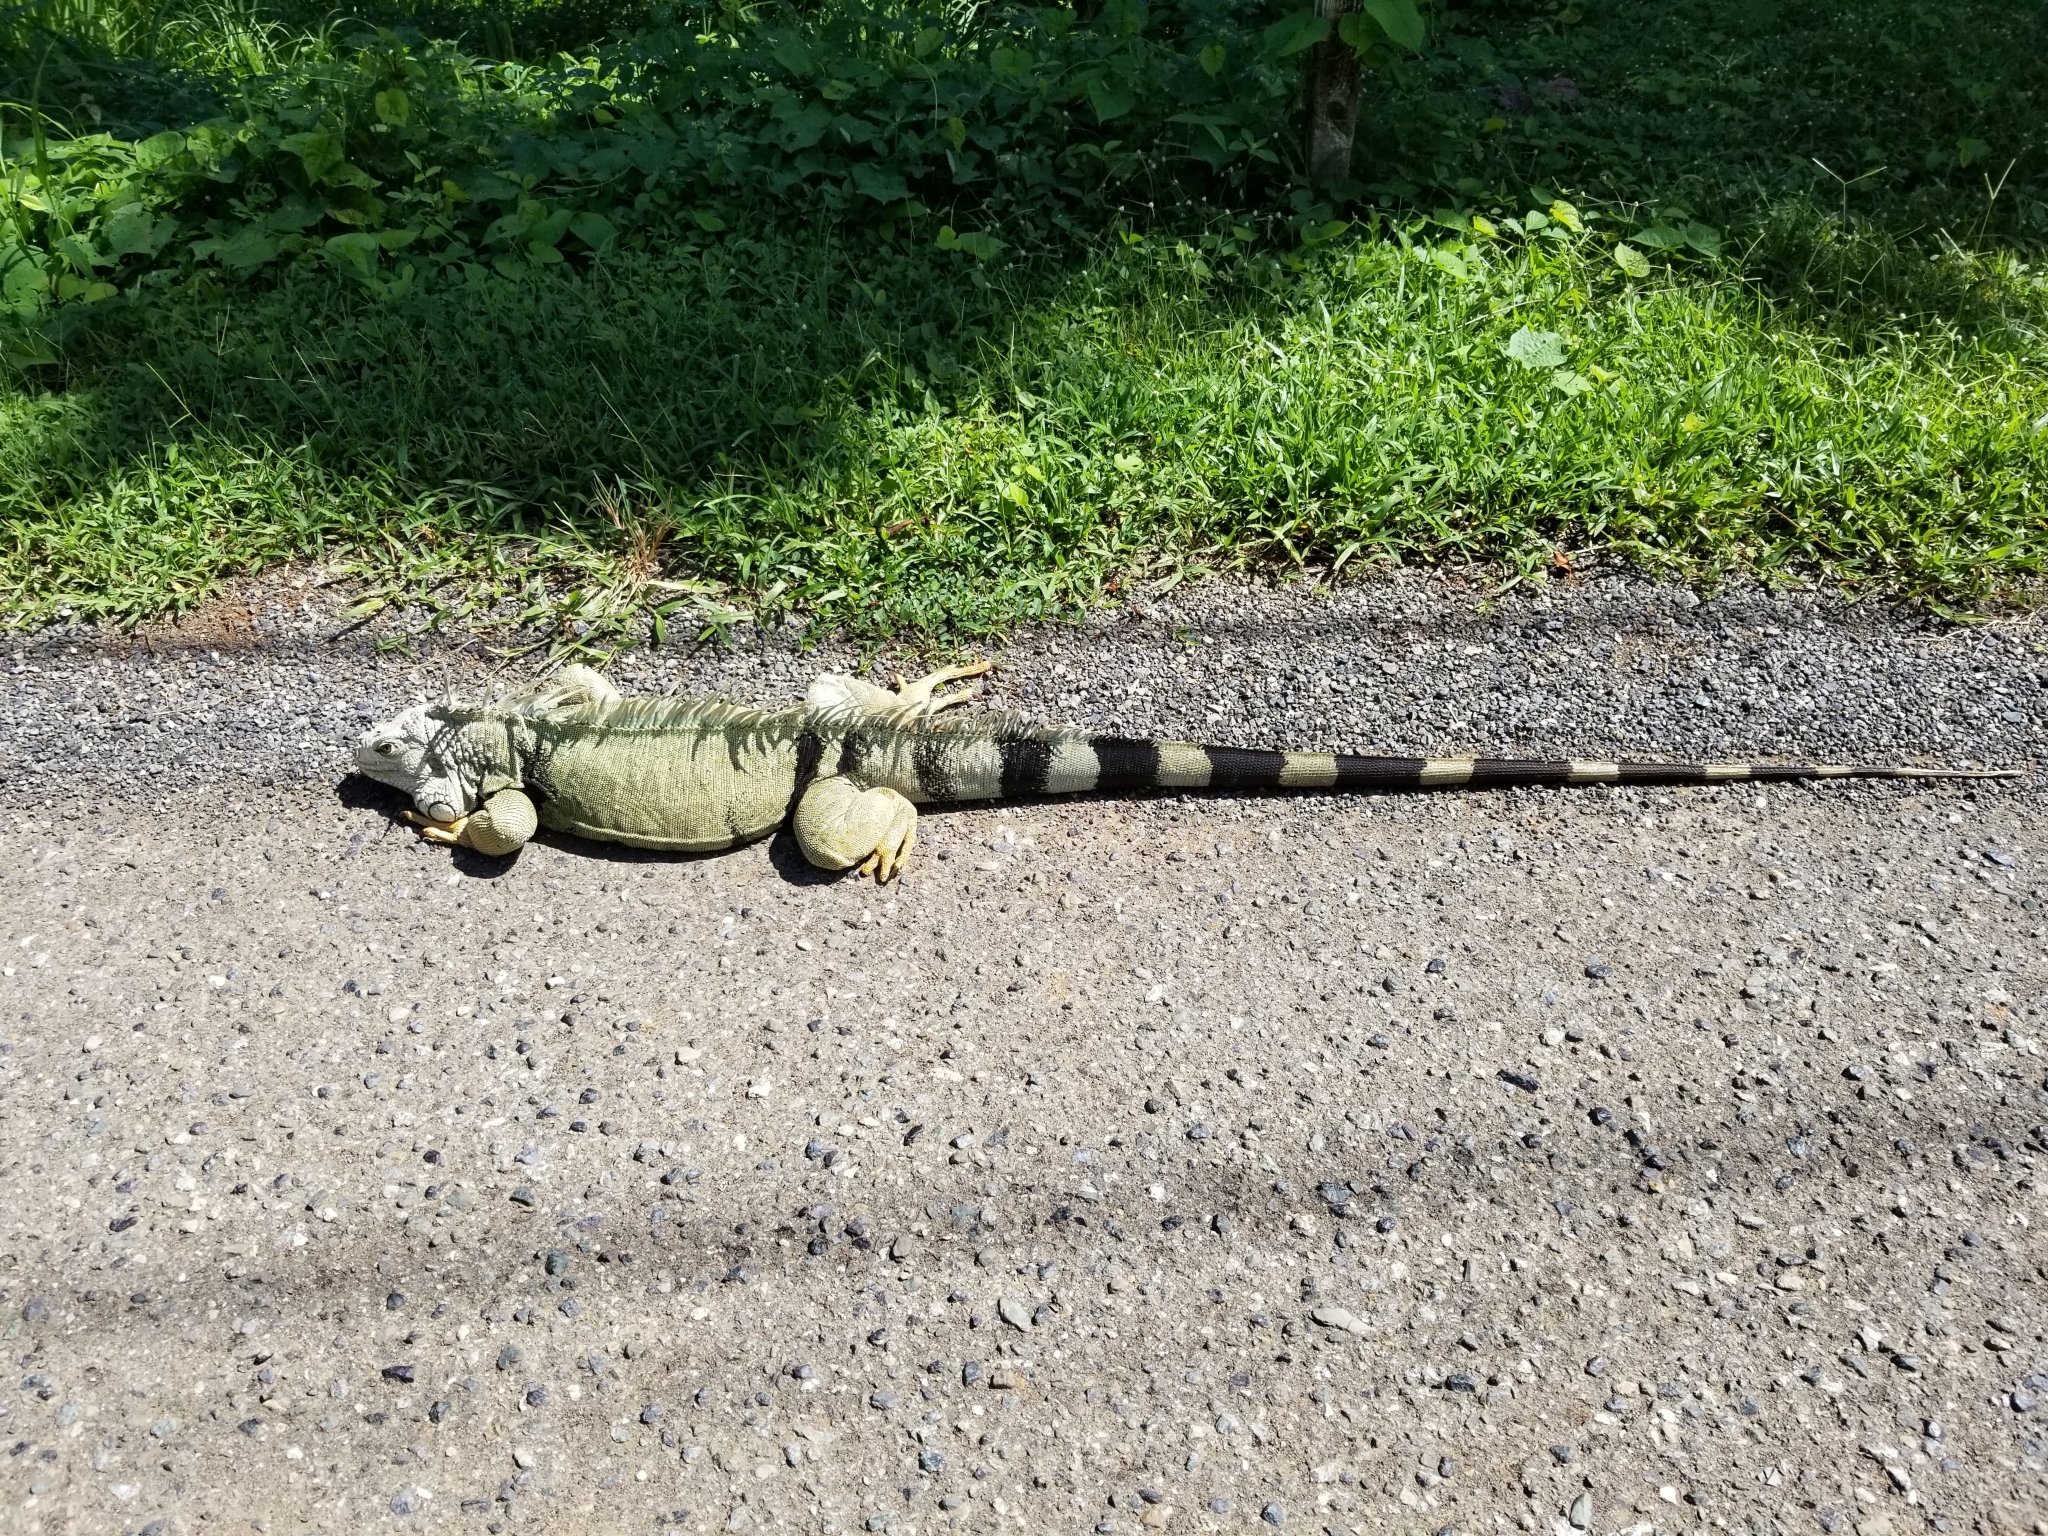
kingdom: Animalia
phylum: Chordata
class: Squamata
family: Iguanidae
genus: Iguana
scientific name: Iguana iguana
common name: Green iguana
